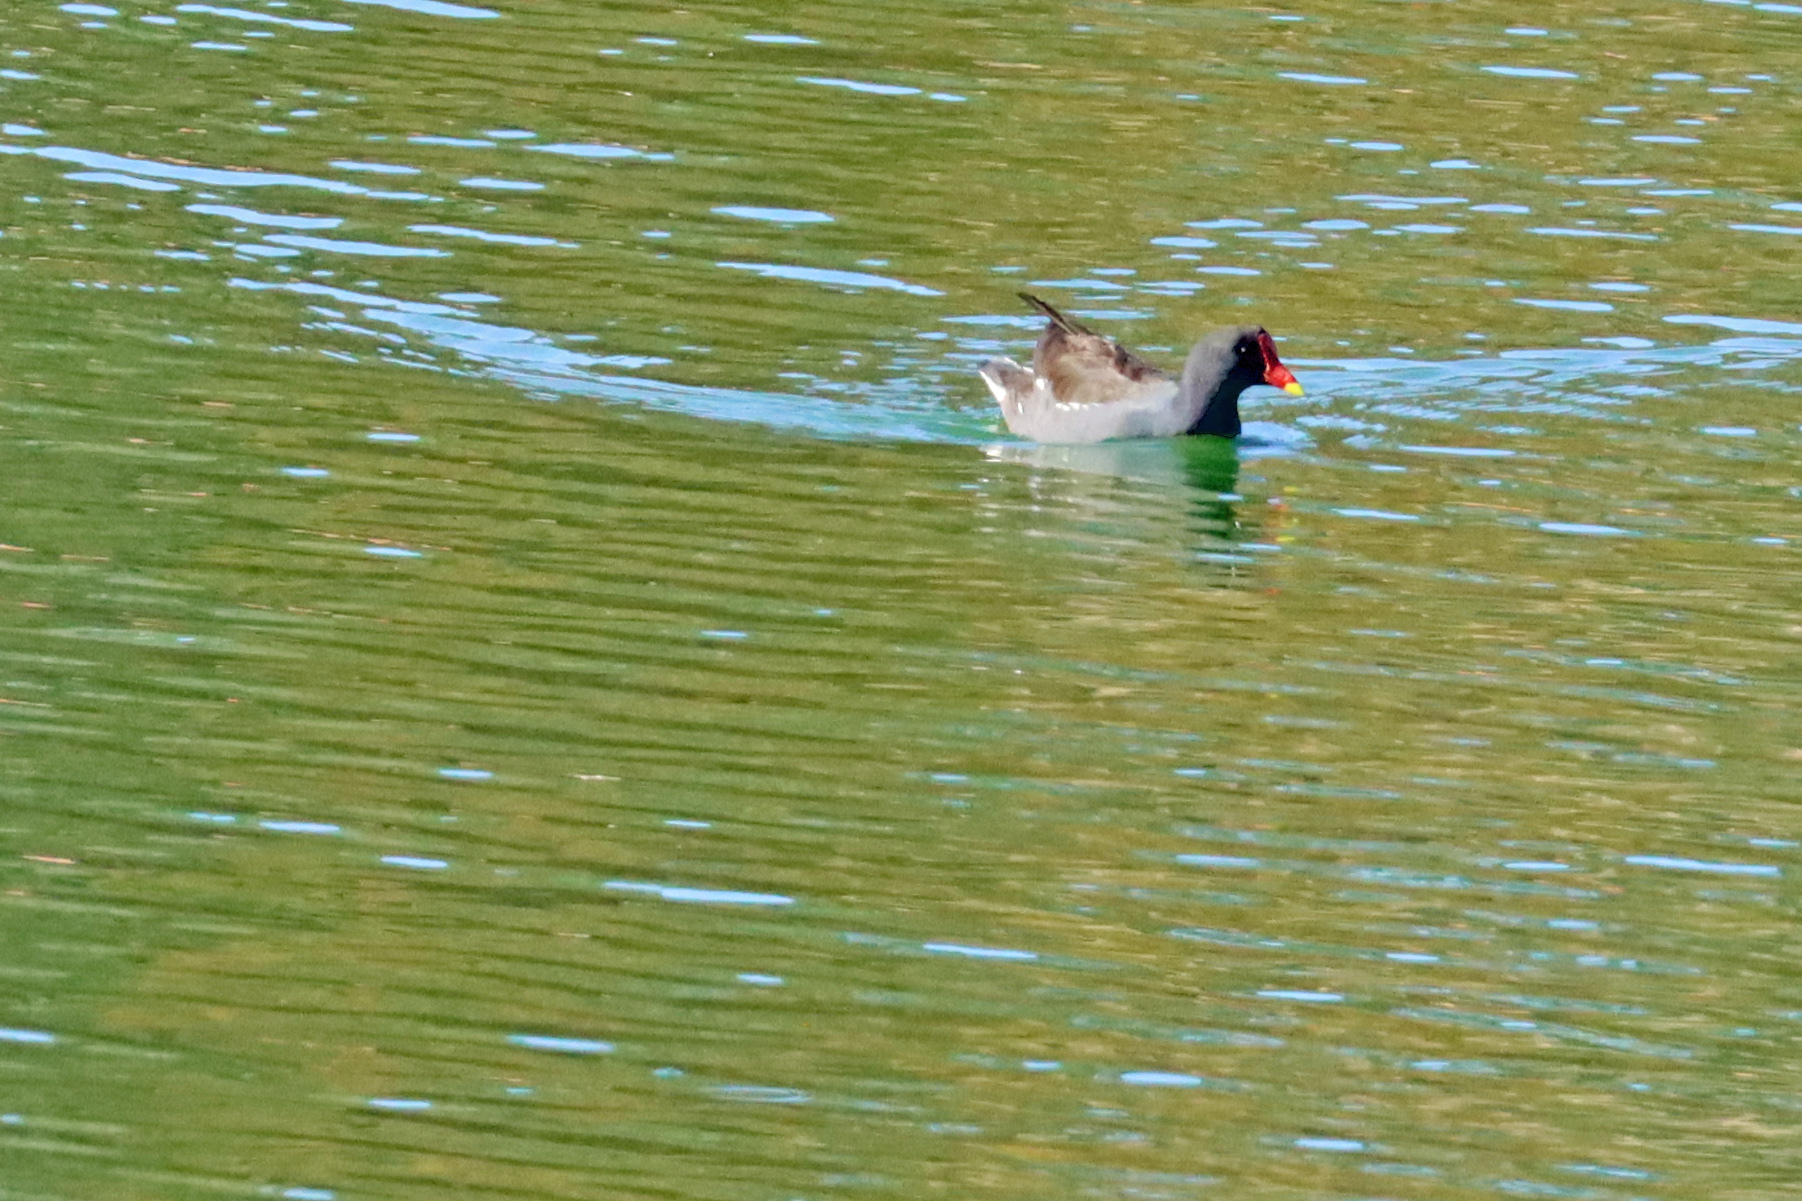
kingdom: Animalia
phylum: Chordata
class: Aves
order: Gruiformes
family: Rallidae
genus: Gallinula
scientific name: Gallinula chloropus
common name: Common moorhen
